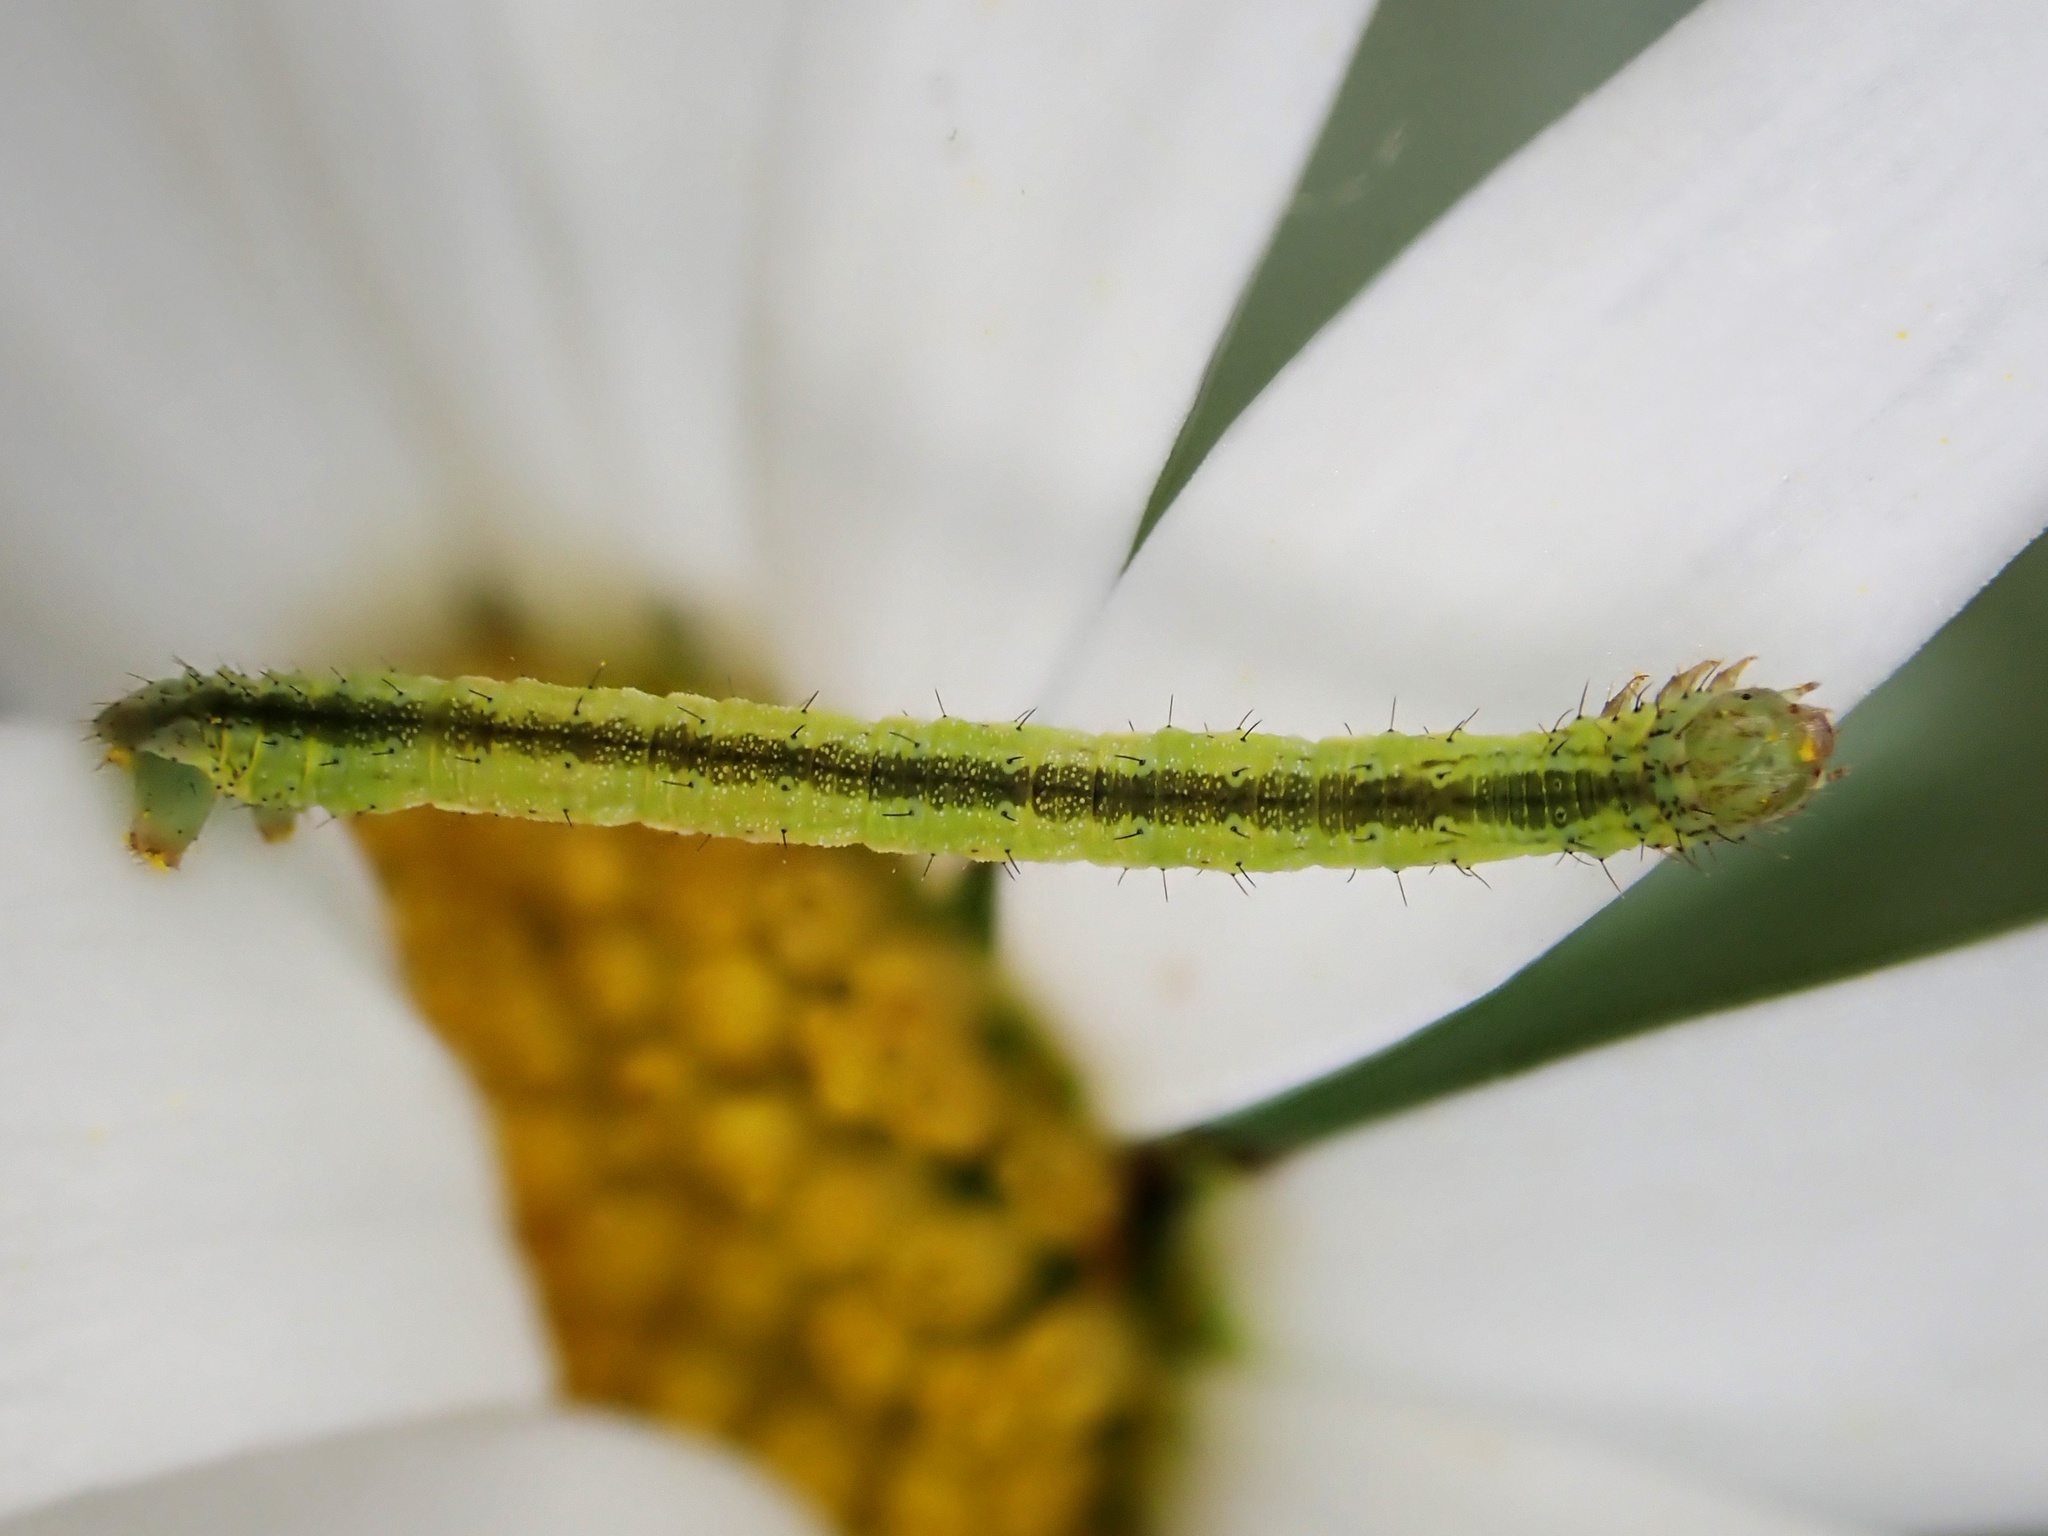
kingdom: Animalia
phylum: Arthropoda
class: Insecta
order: Lepidoptera
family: Geometridae
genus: Phrissogonus
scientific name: Phrissogonus laticostata
